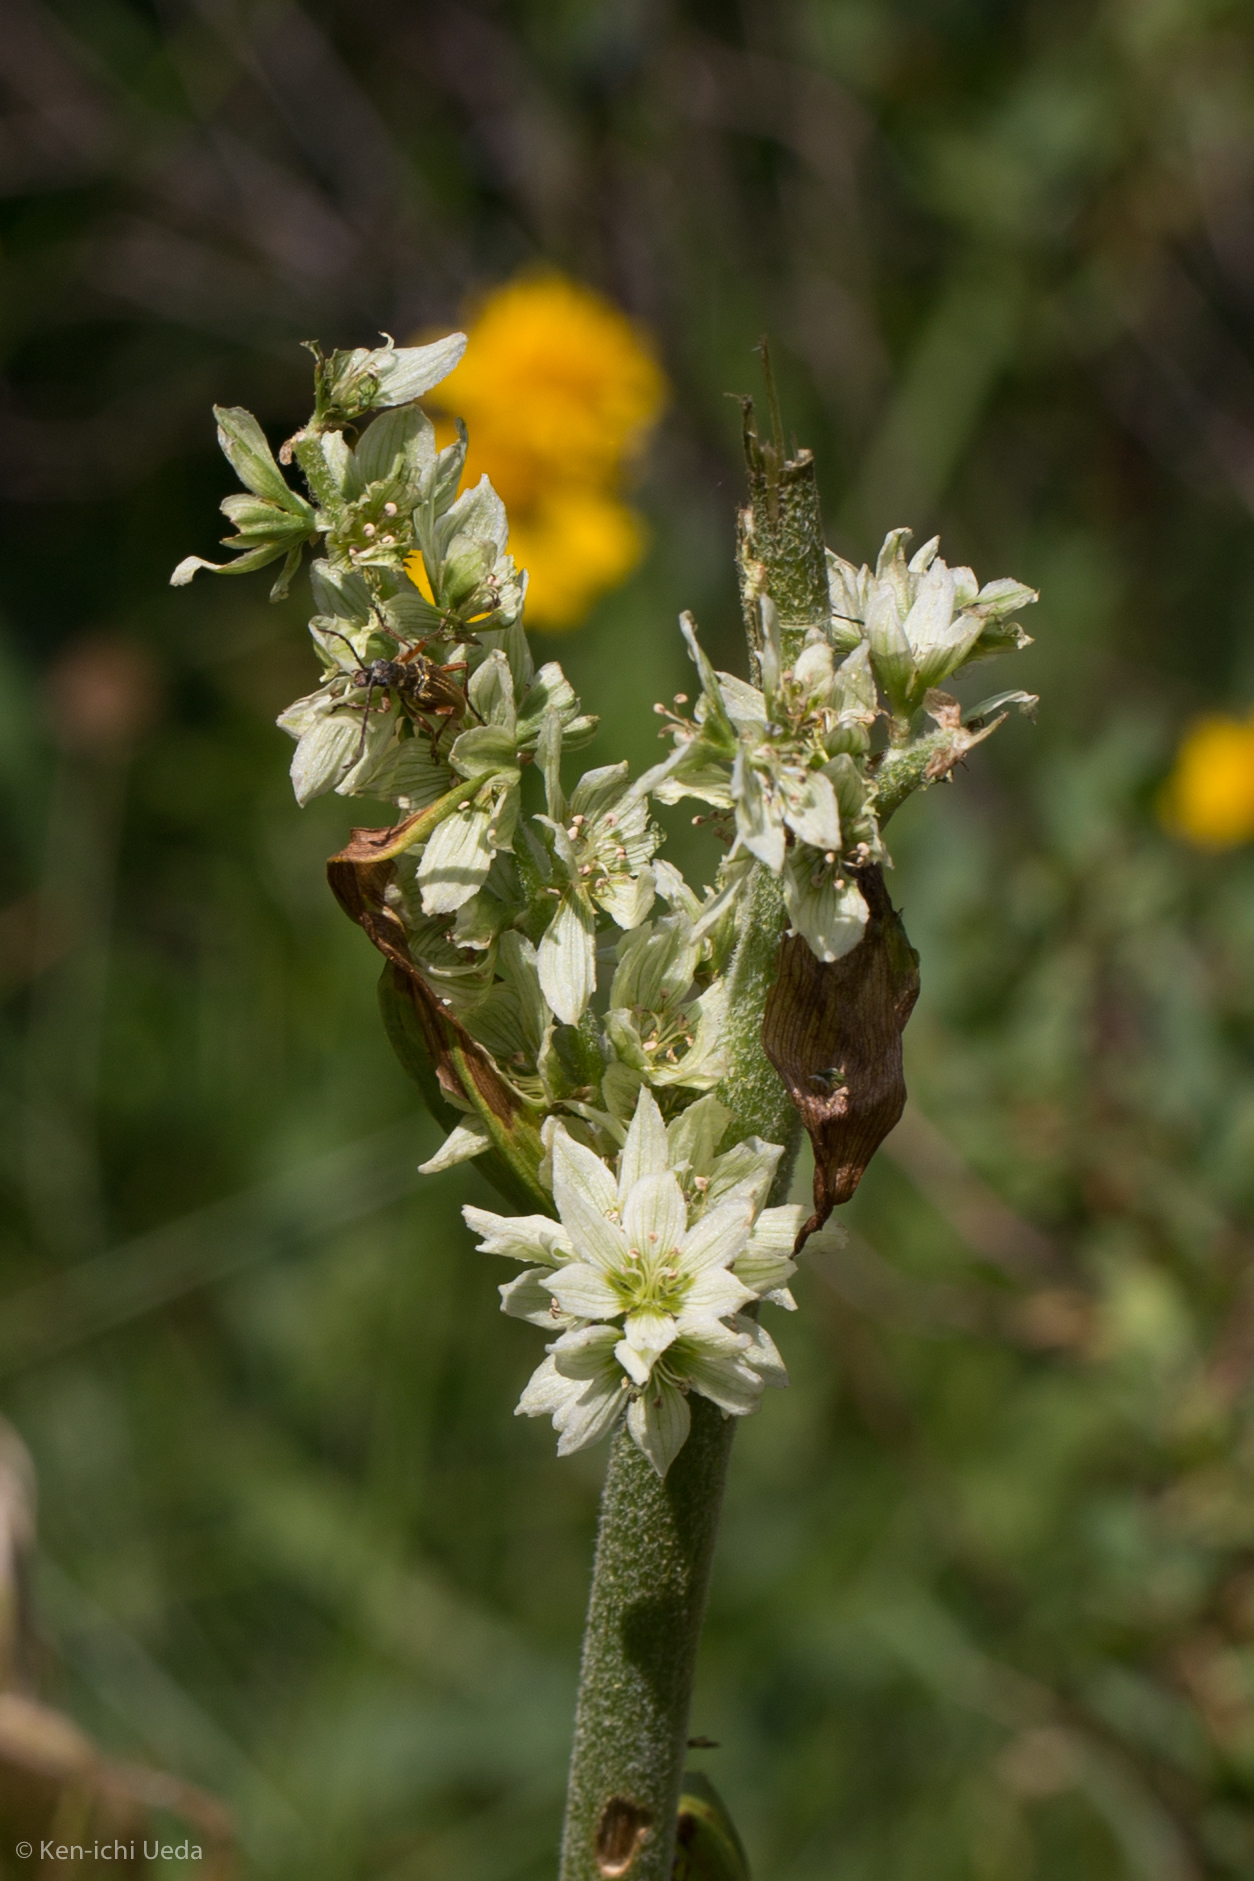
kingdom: Plantae
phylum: Tracheophyta
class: Liliopsida
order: Liliales
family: Melanthiaceae
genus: Veratrum
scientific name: Veratrum californicum
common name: California veratrum
